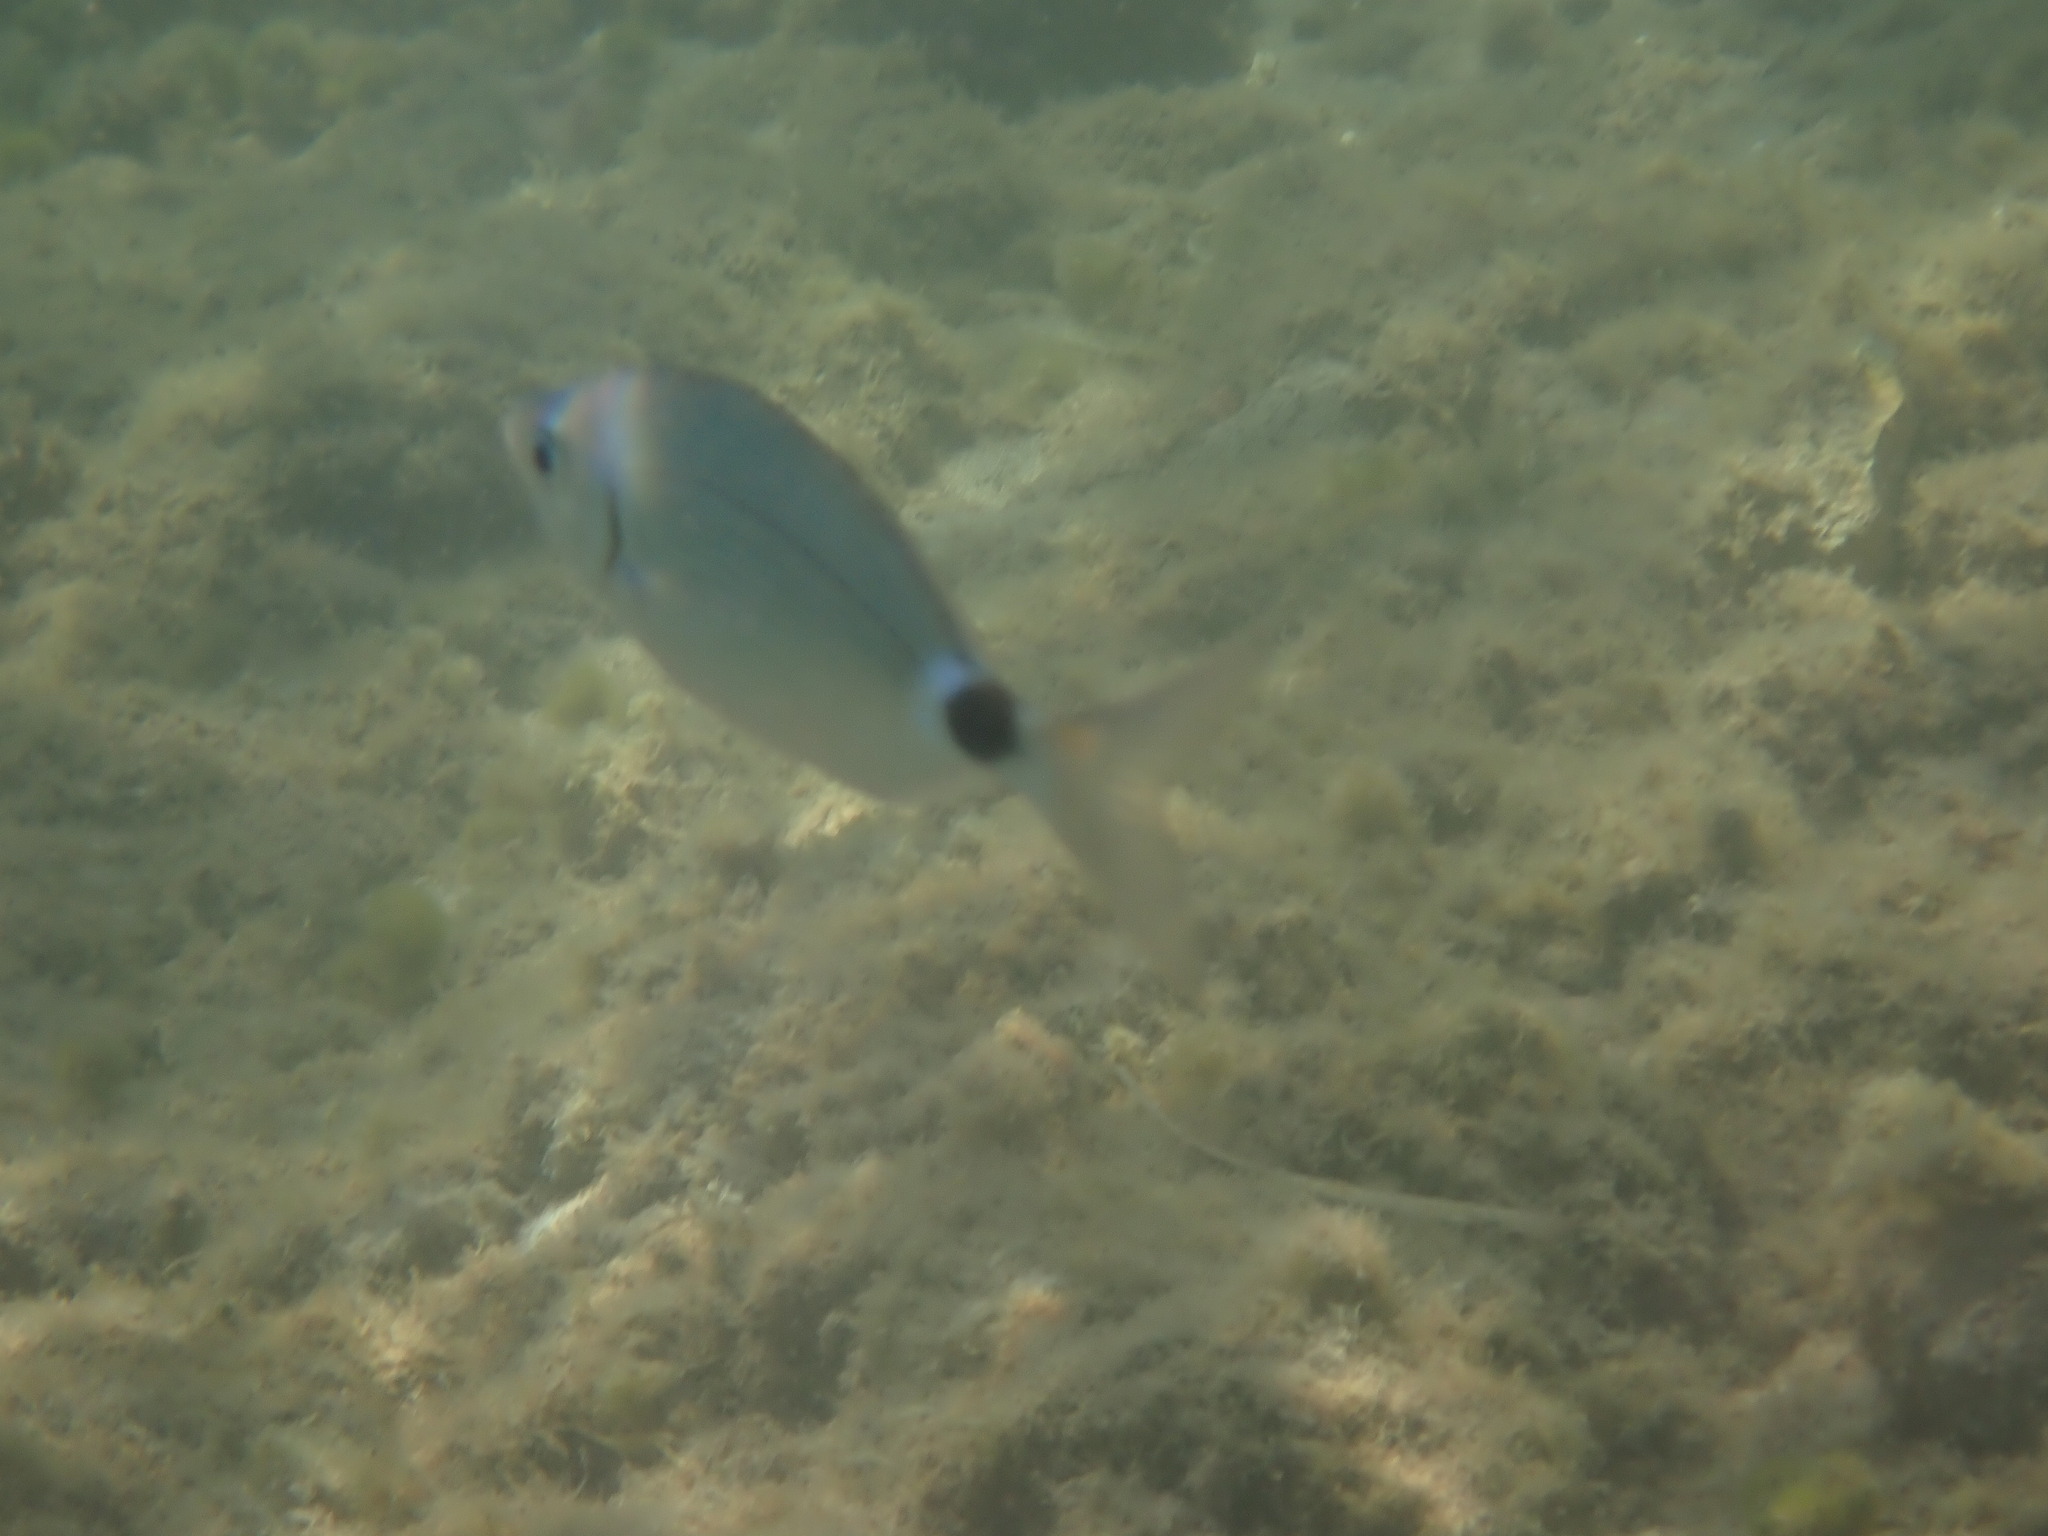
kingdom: Animalia
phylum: Chordata
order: Perciformes
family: Sparidae
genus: Oblada
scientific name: Oblada melanura
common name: Saddled seabream
